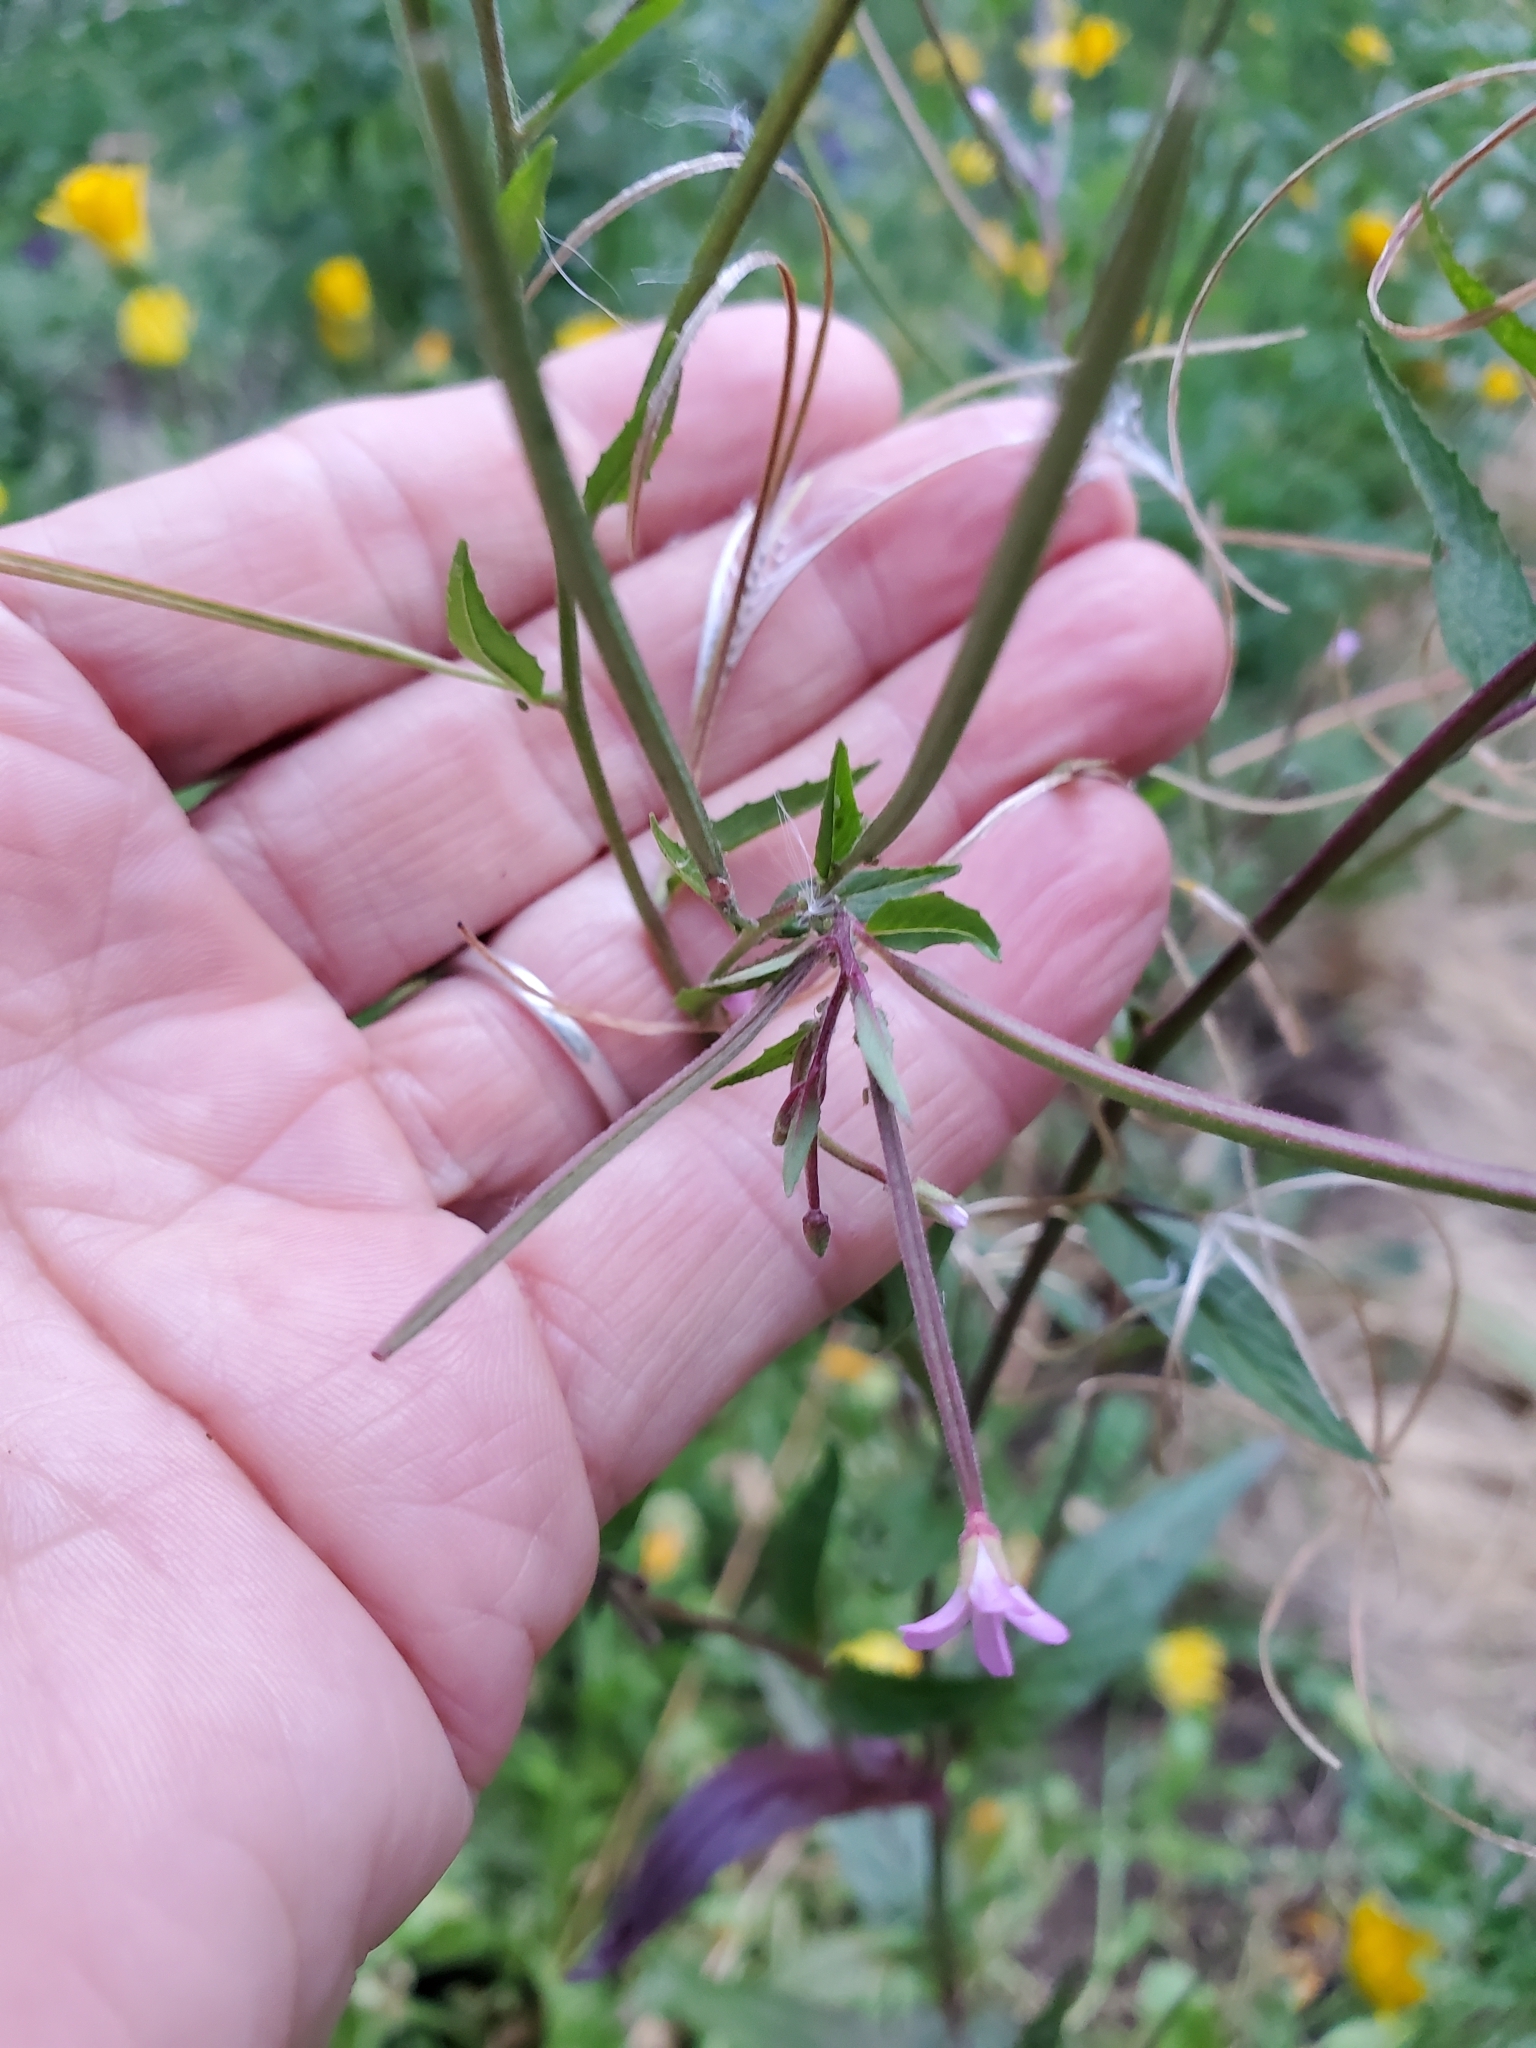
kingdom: Plantae
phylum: Tracheophyta
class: Magnoliopsida
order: Myrtales
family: Onagraceae
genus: Epilobium
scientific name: Epilobium ciliatum
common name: American willowherb
